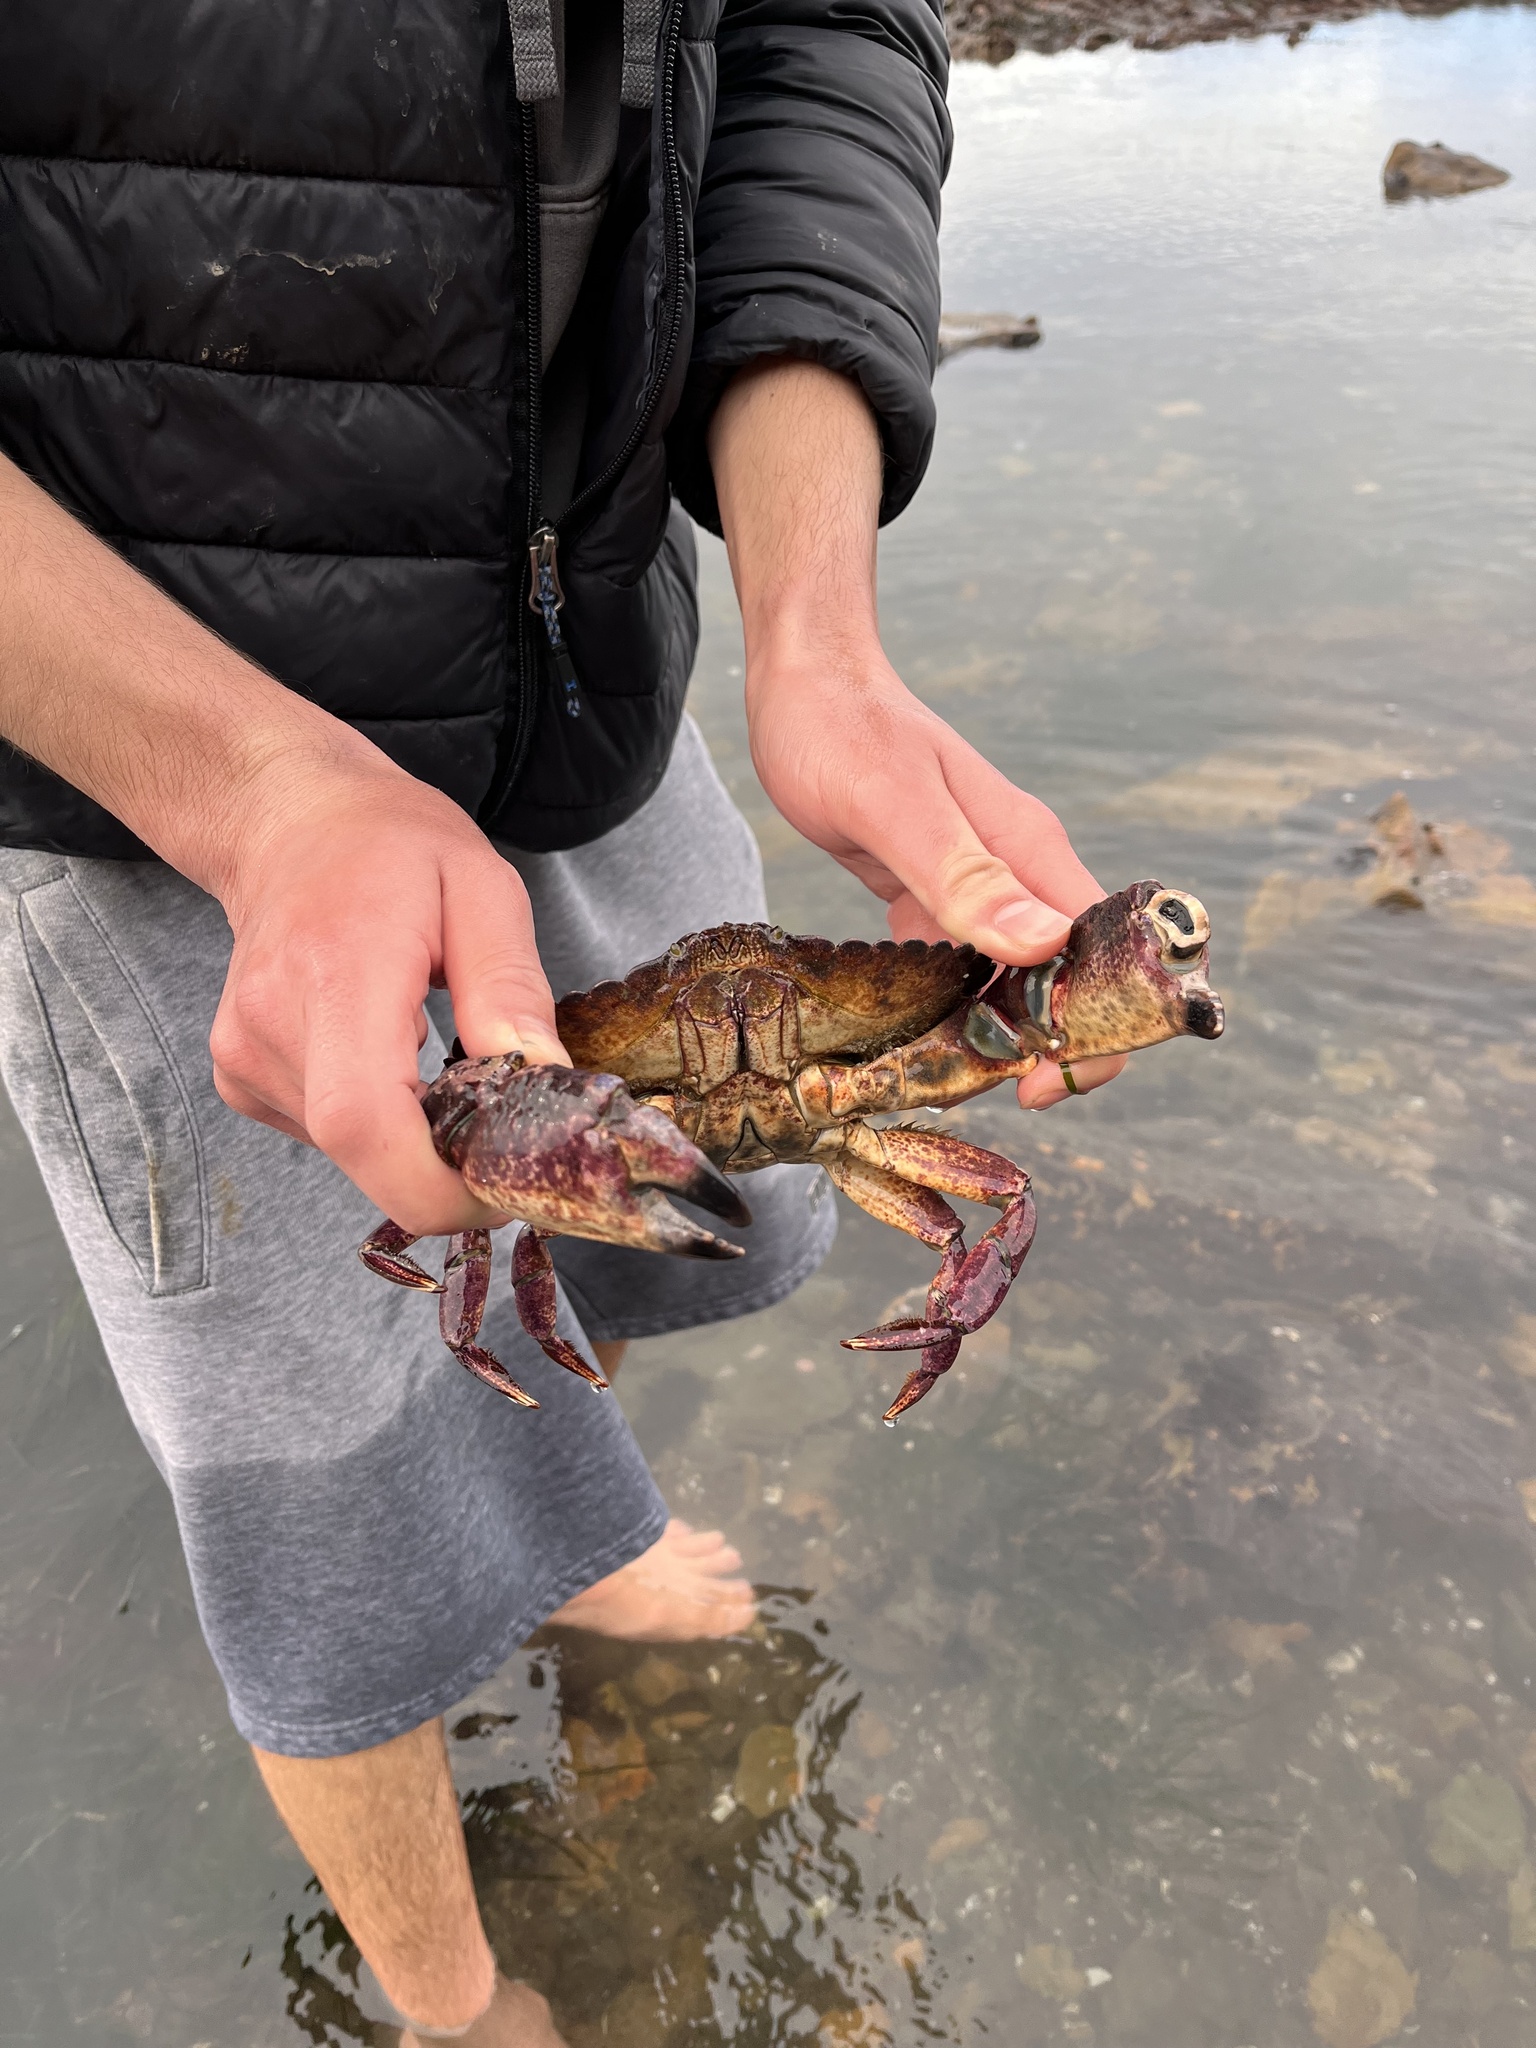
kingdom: Animalia
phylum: Arthropoda
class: Malacostraca
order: Decapoda
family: Cancridae
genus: Cancer
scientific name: Cancer productus
